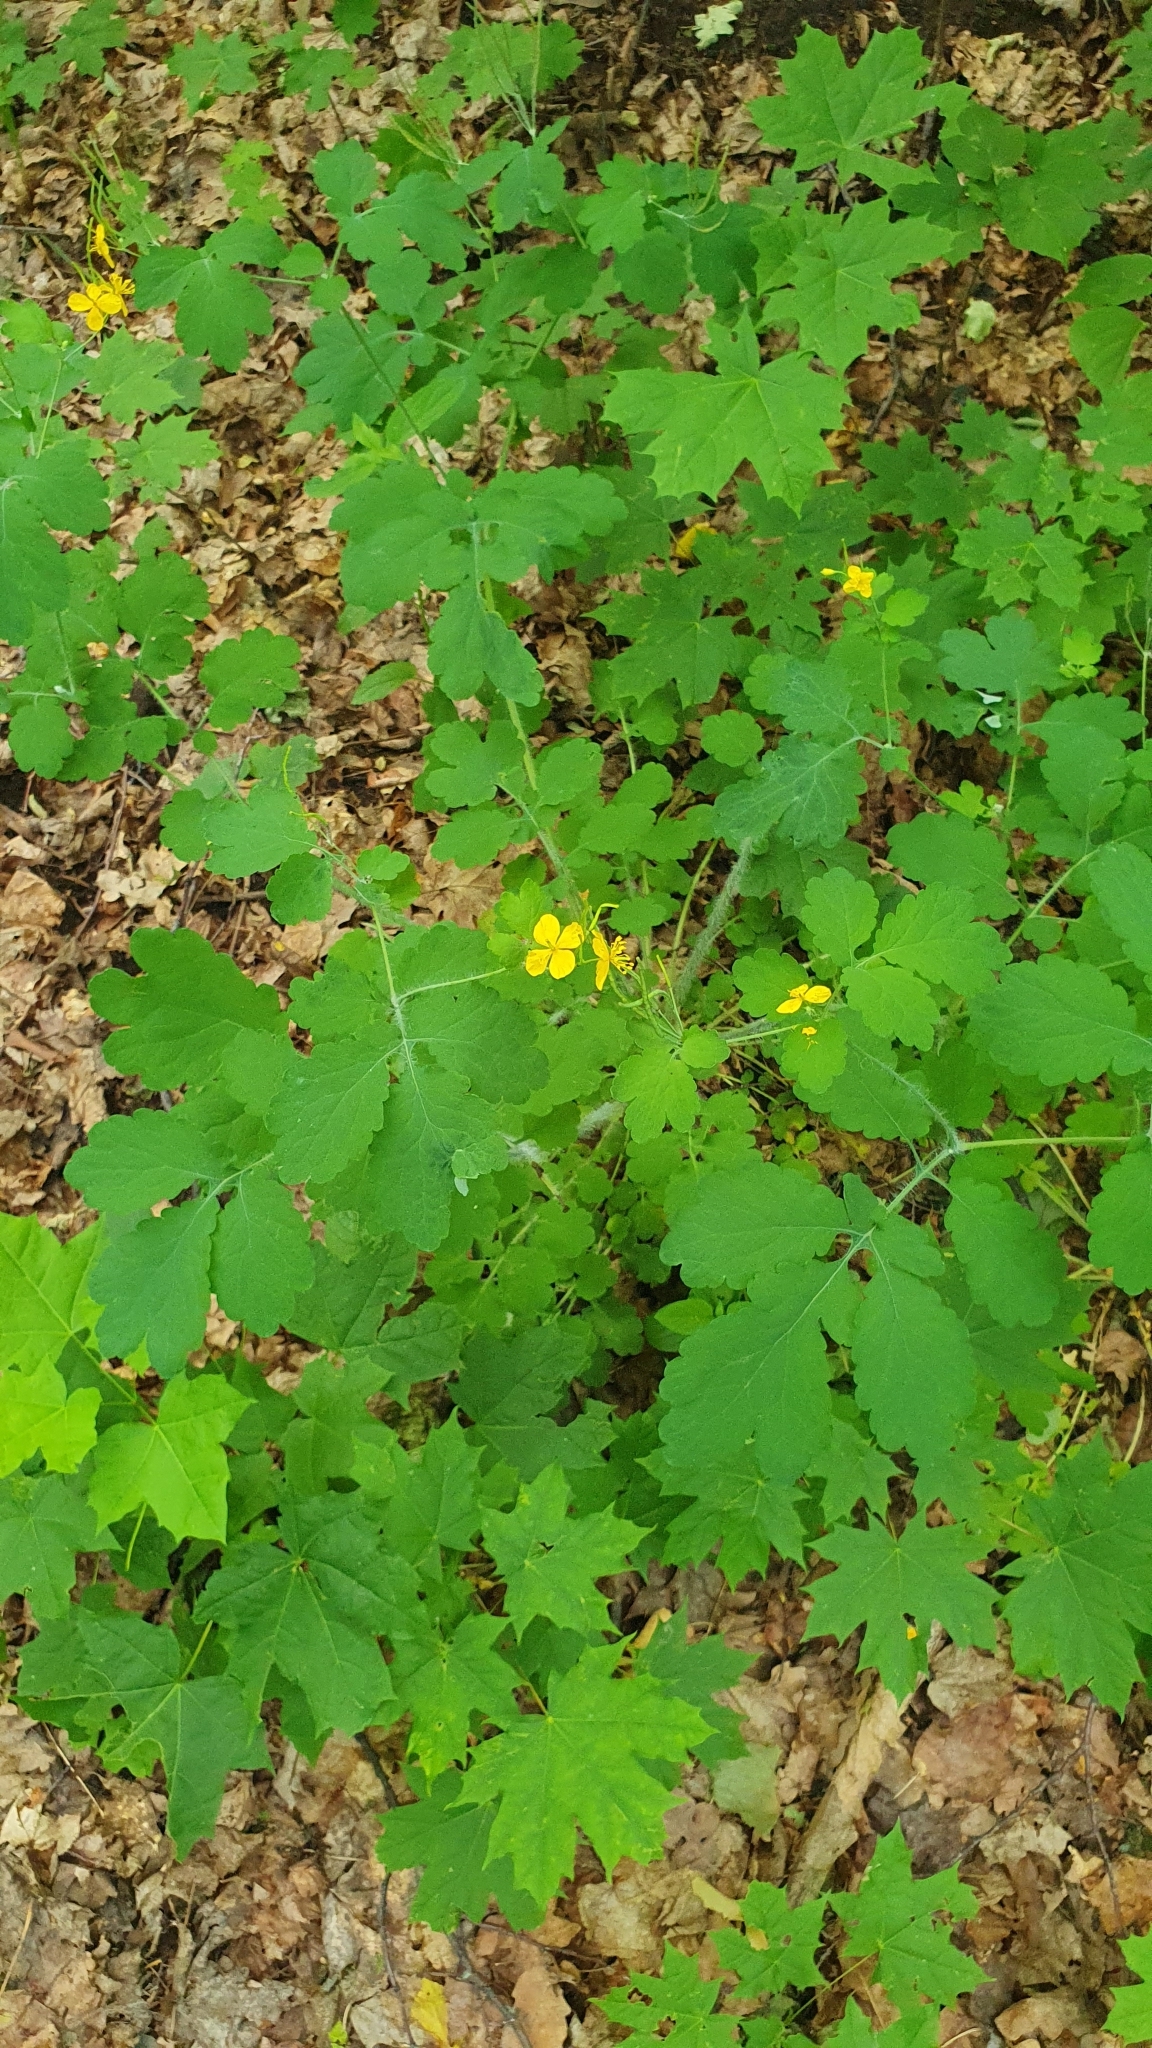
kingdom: Plantae
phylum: Tracheophyta
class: Magnoliopsida
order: Ranunculales
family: Papaveraceae
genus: Chelidonium
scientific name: Chelidonium majus
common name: Greater celandine
